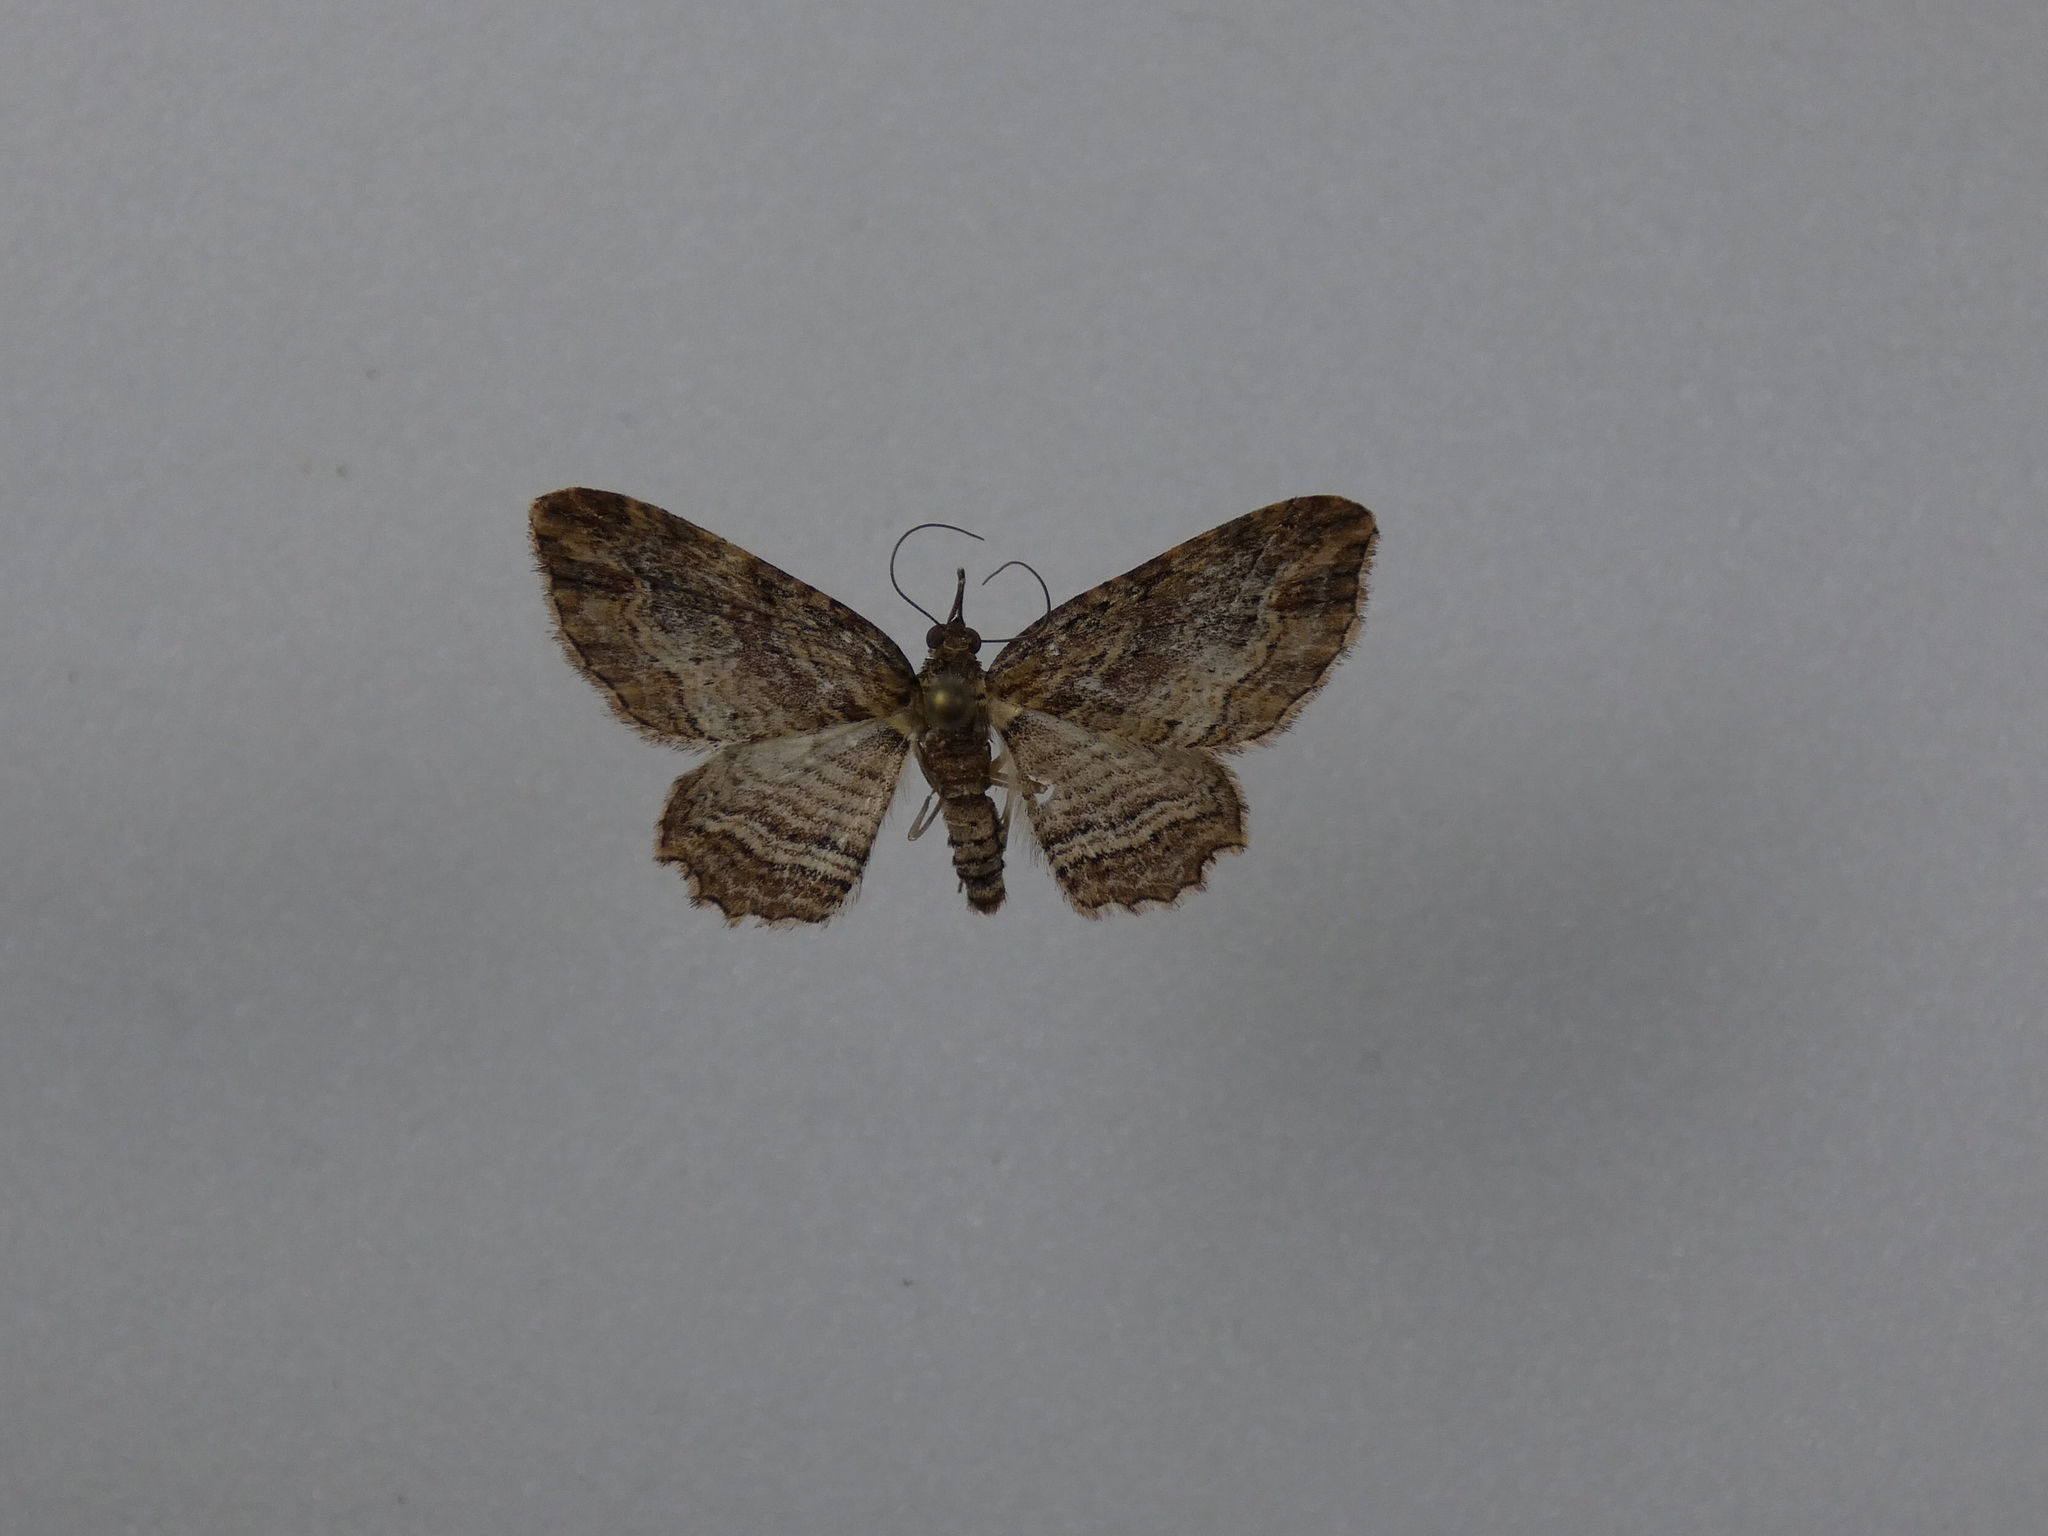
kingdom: Animalia
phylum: Arthropoda
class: Insecta
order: Lepidoptera
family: Geometridae
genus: Chloroclystis
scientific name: Chloroclystis filata
